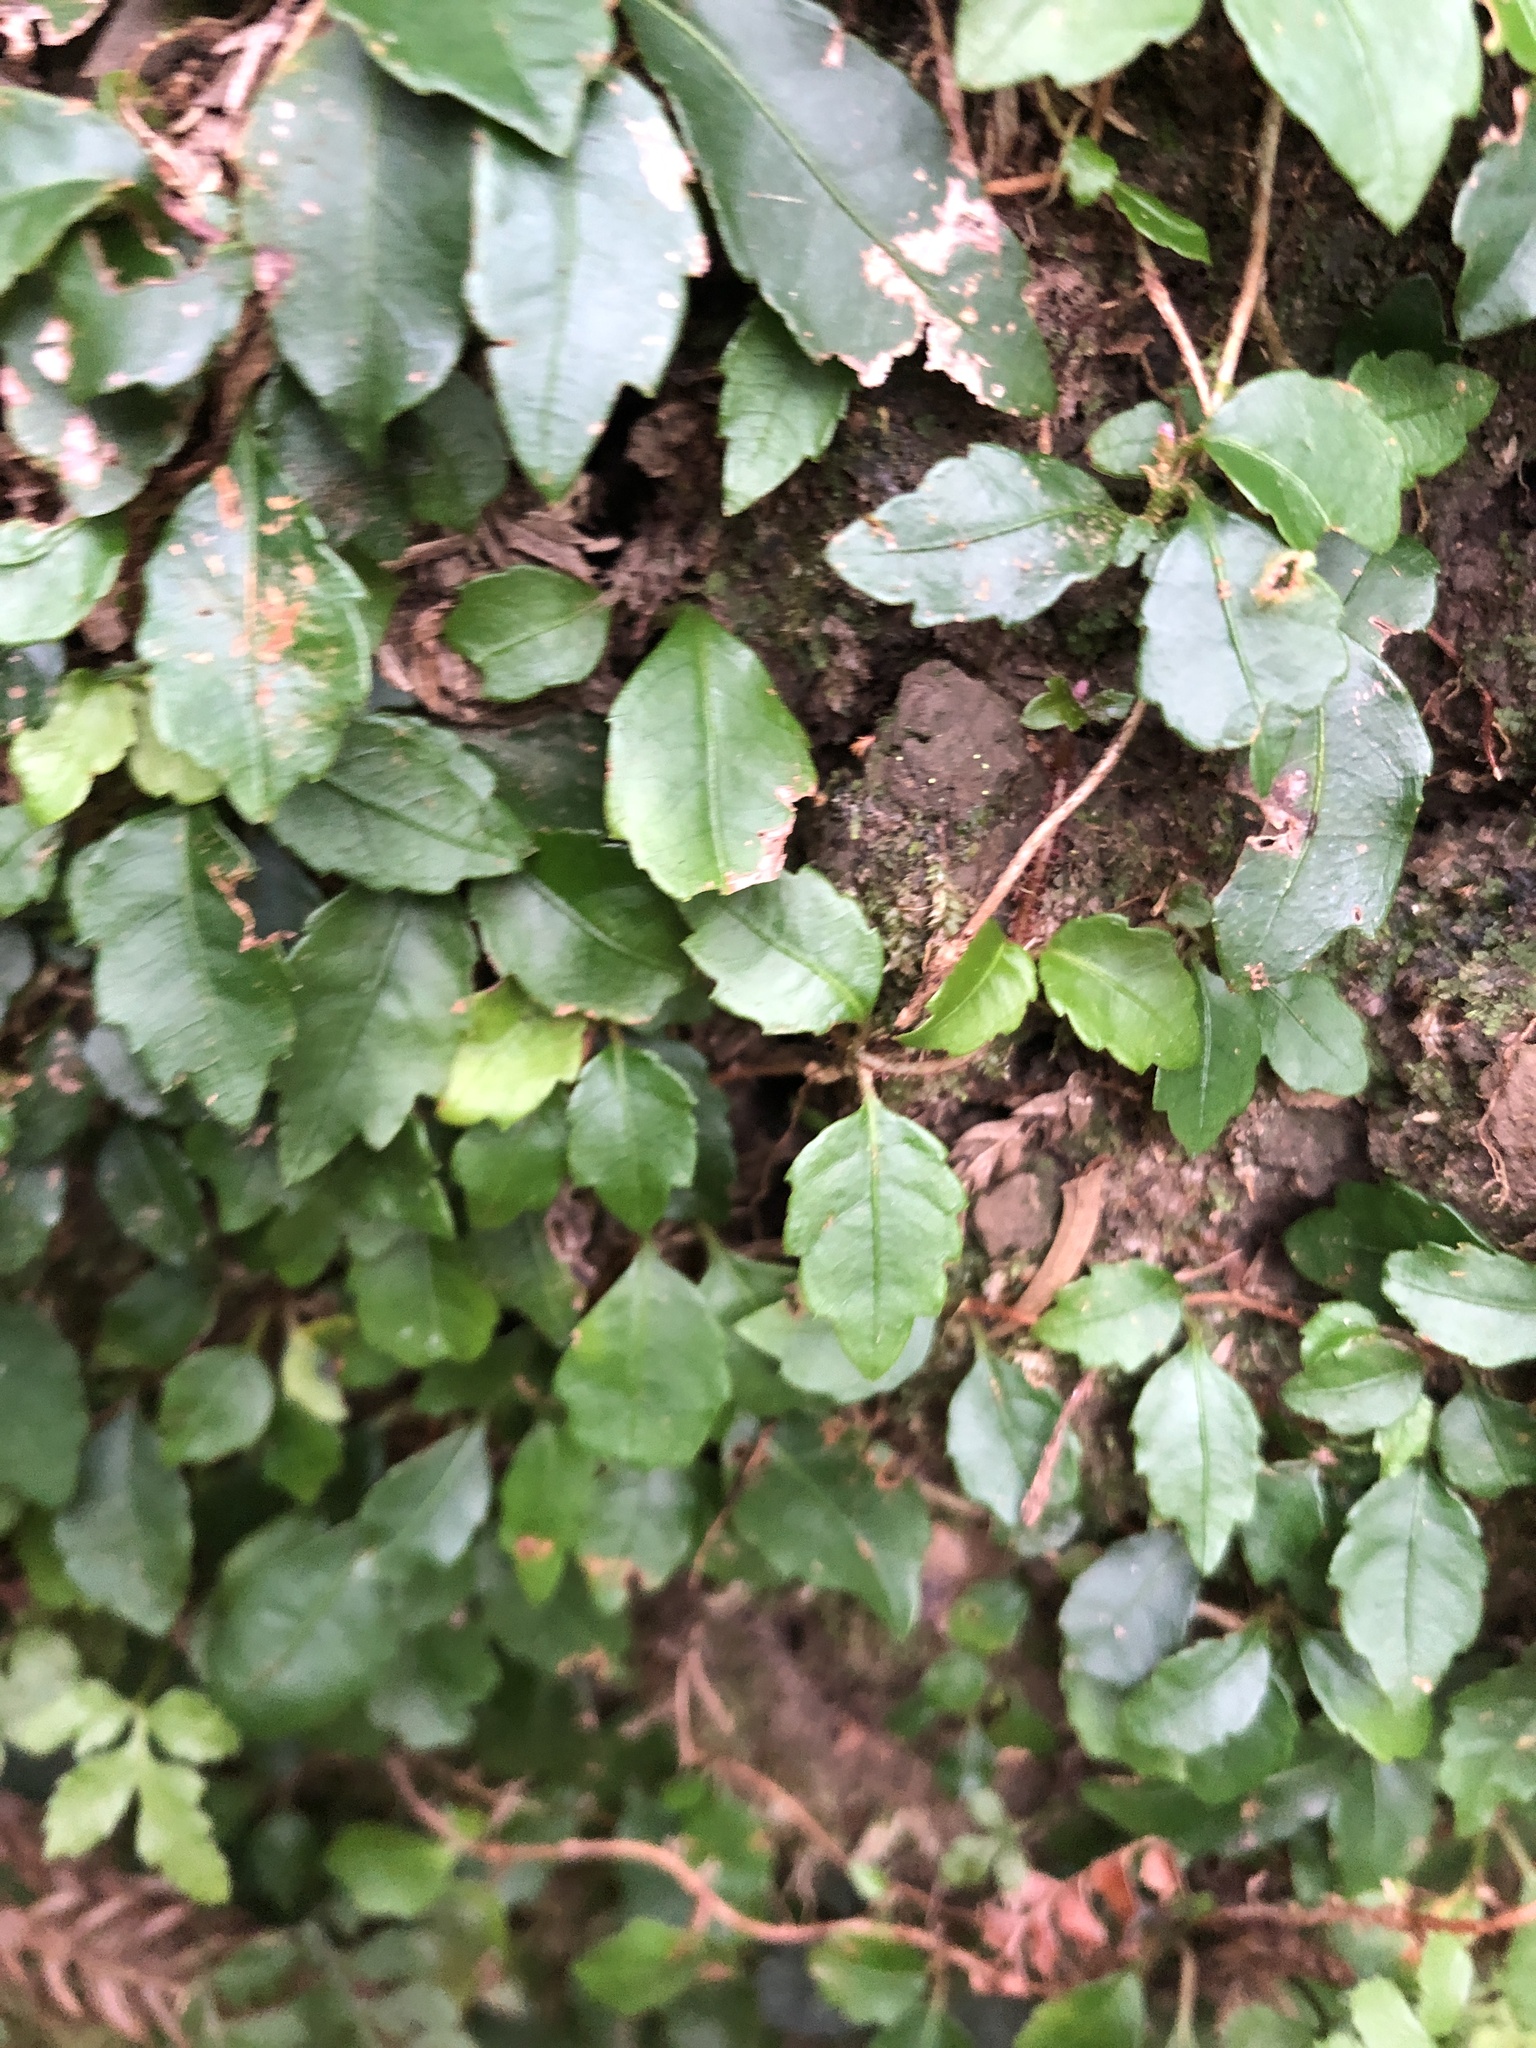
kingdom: Plantae
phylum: Tracheophyta
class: Magnoliopsida
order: Cornales
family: Hydrangeaceae
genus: Hydrangea
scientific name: Hydrangea integrifolia
